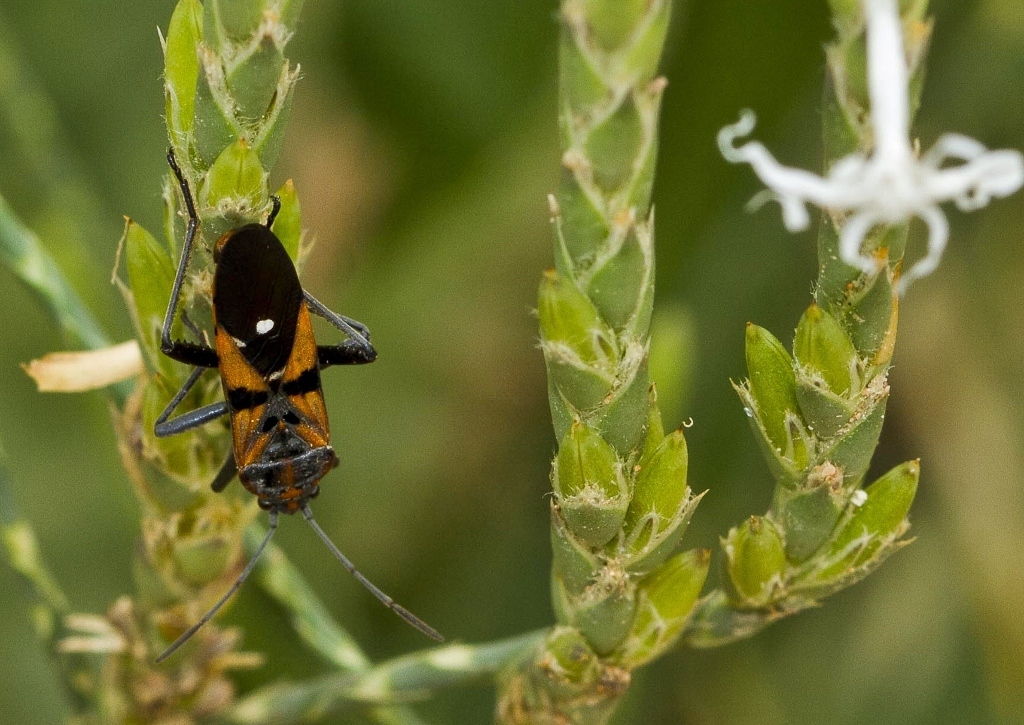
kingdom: Animalia
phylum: Arthropoda
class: Insecta
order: Hemiptera
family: Lygaeidae
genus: Spilostethus
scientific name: Spilostethus macilentus
